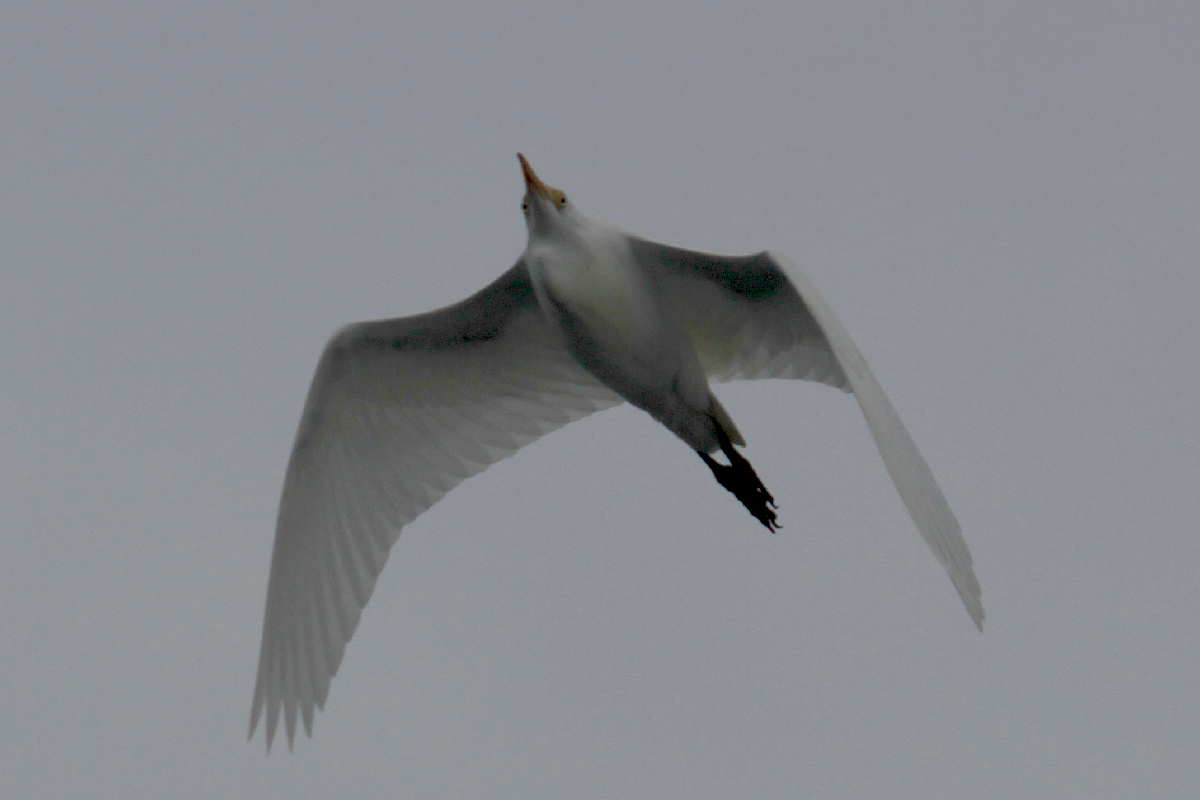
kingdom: Animalia
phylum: Chordata
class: Aves
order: Pelecaniformes
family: Ardeidae
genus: Bubulcus
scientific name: Bubulcus ibis
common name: Cattle egret
